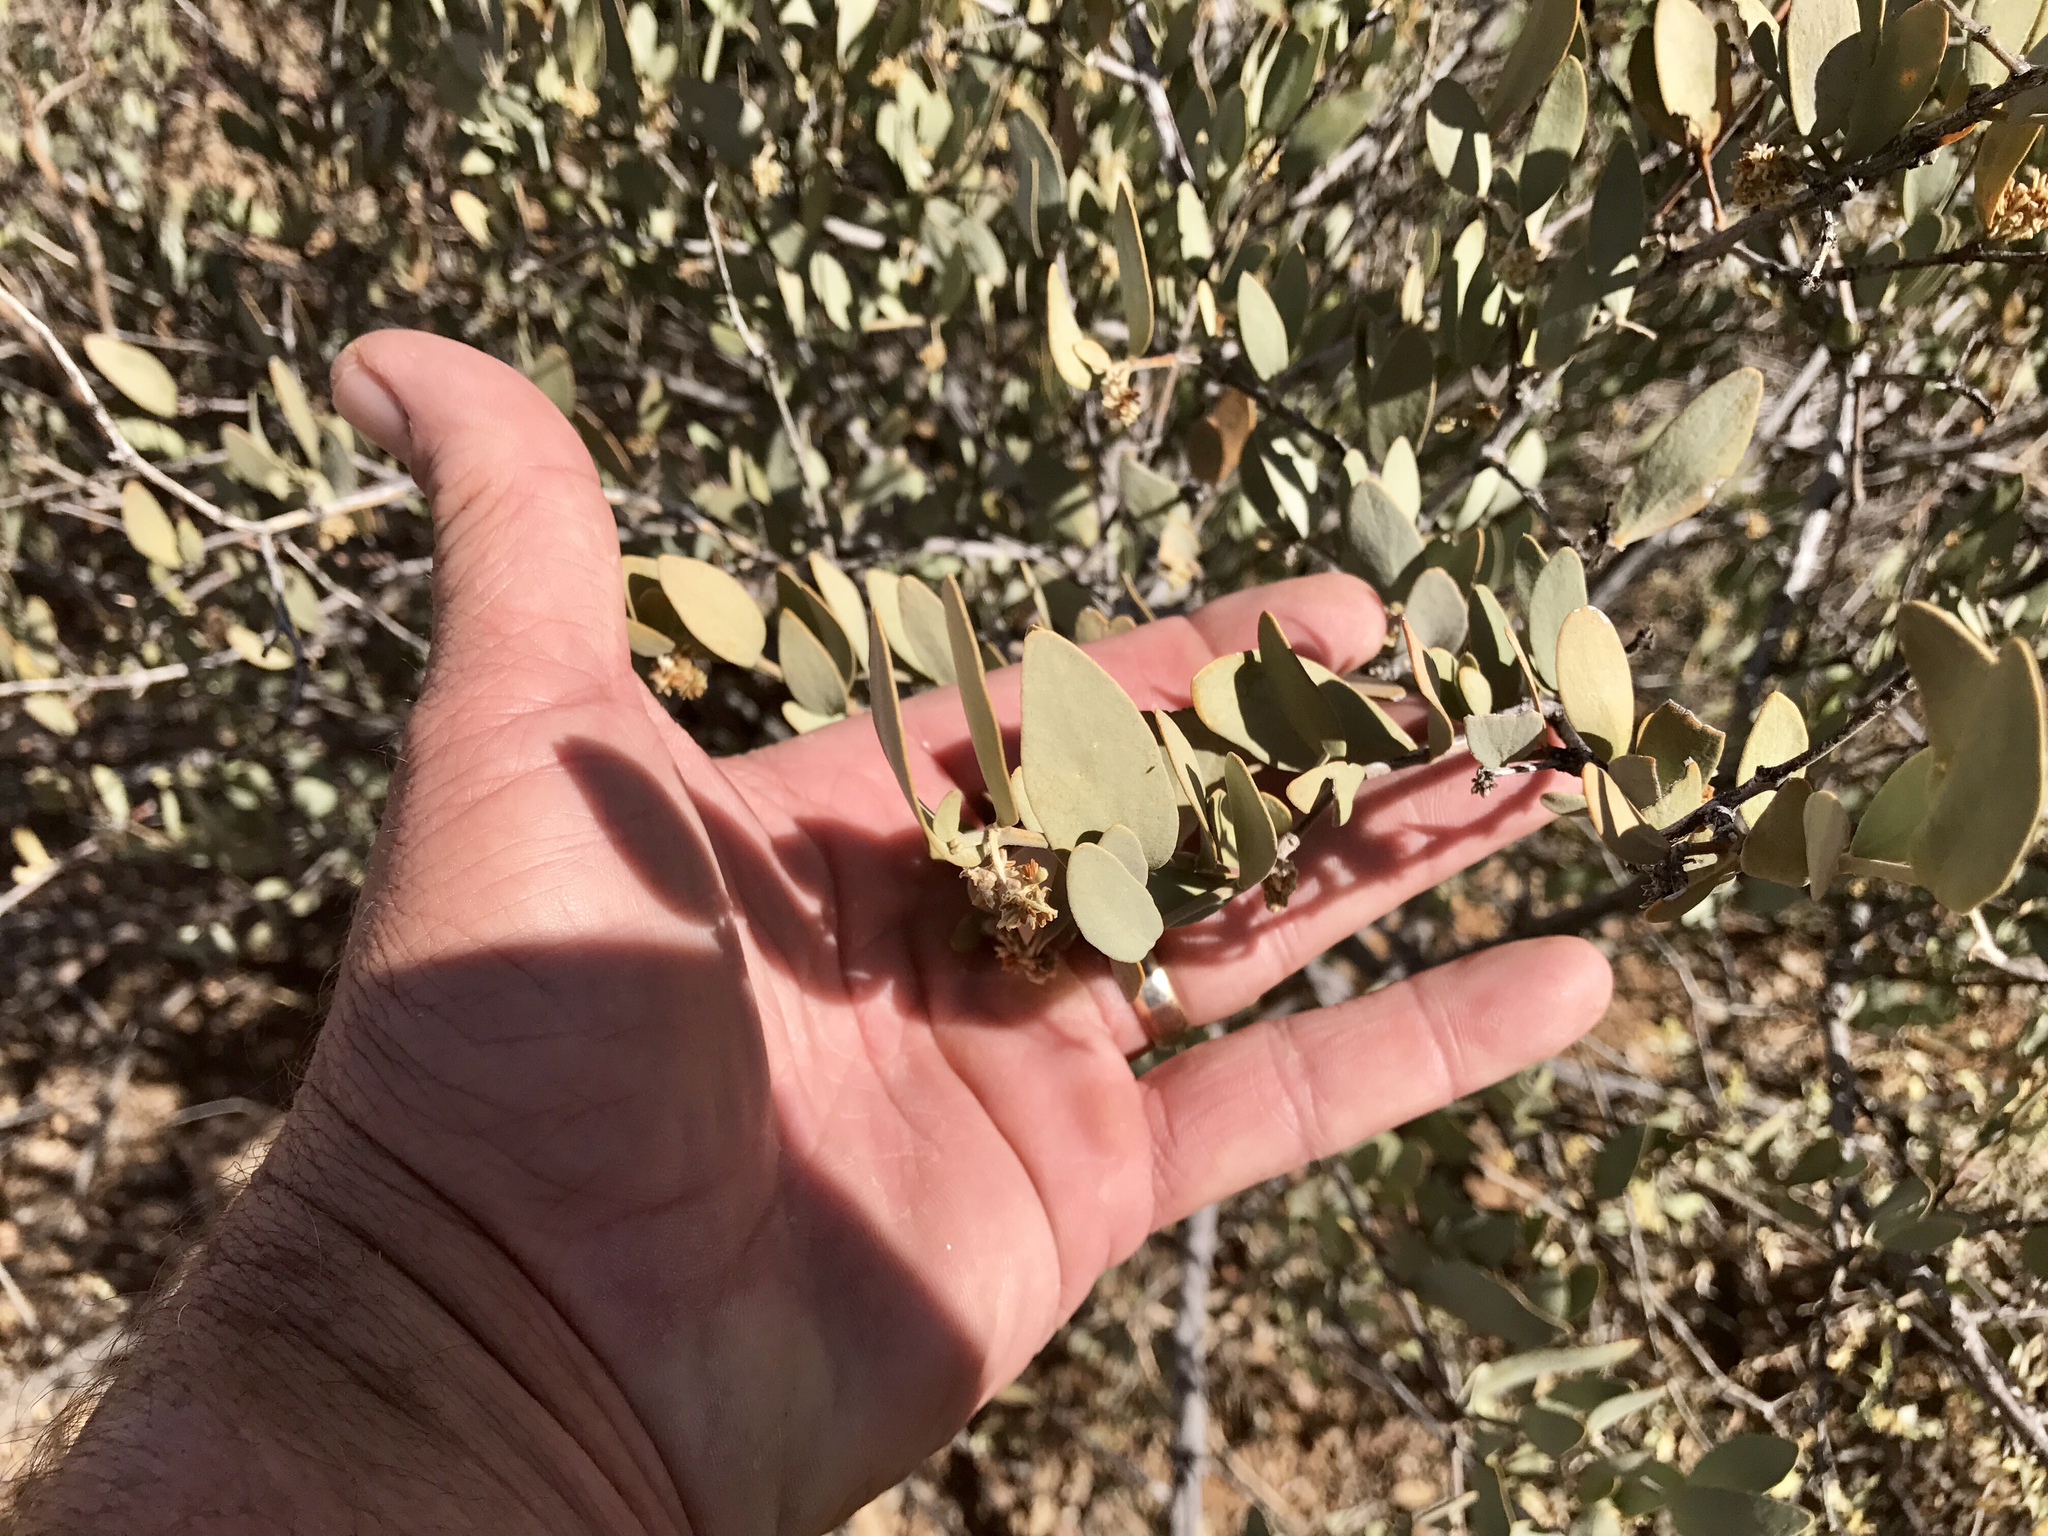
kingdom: Plantae
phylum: Tracheophyta
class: Magnoliopsida
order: Caryophyllales
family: Simmondsiaceae
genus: Simmondsia
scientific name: Simmondsia chinensis
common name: Jojoba
